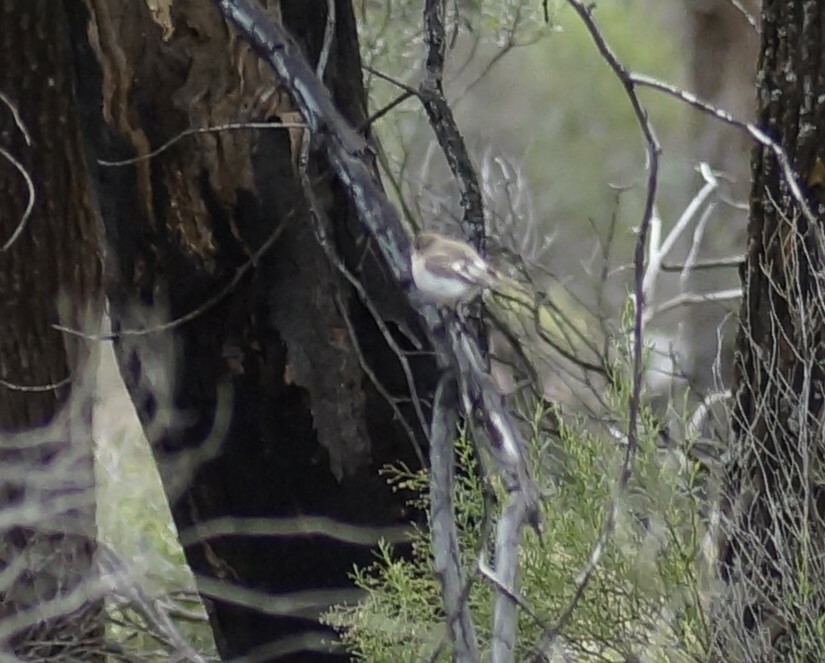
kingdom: Animalia
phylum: Chordata
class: Aves
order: Passeriformes
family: Petroicidae
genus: Petroica
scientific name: Petroica goodenovii
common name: Red-capped robin
